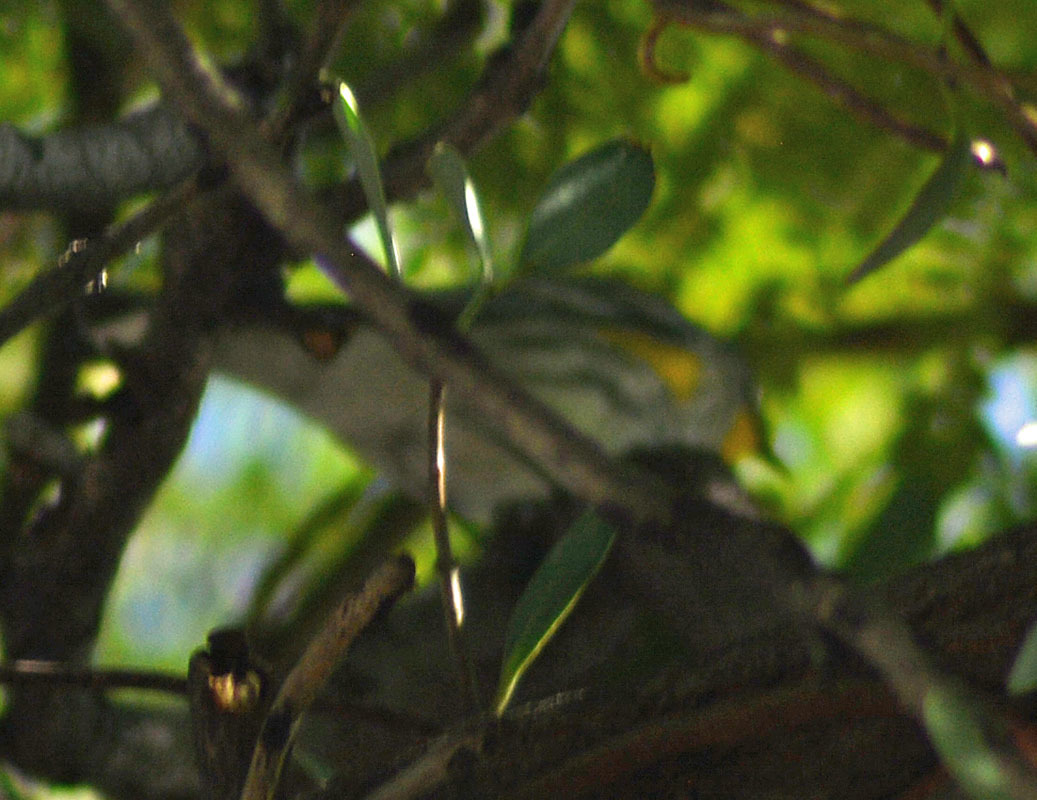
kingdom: Animalia
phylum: Chordata
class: Aves
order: Passeriformes
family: Parulidae
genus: Setophaga
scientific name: Setophaga coronata
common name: Myrtle warbler
